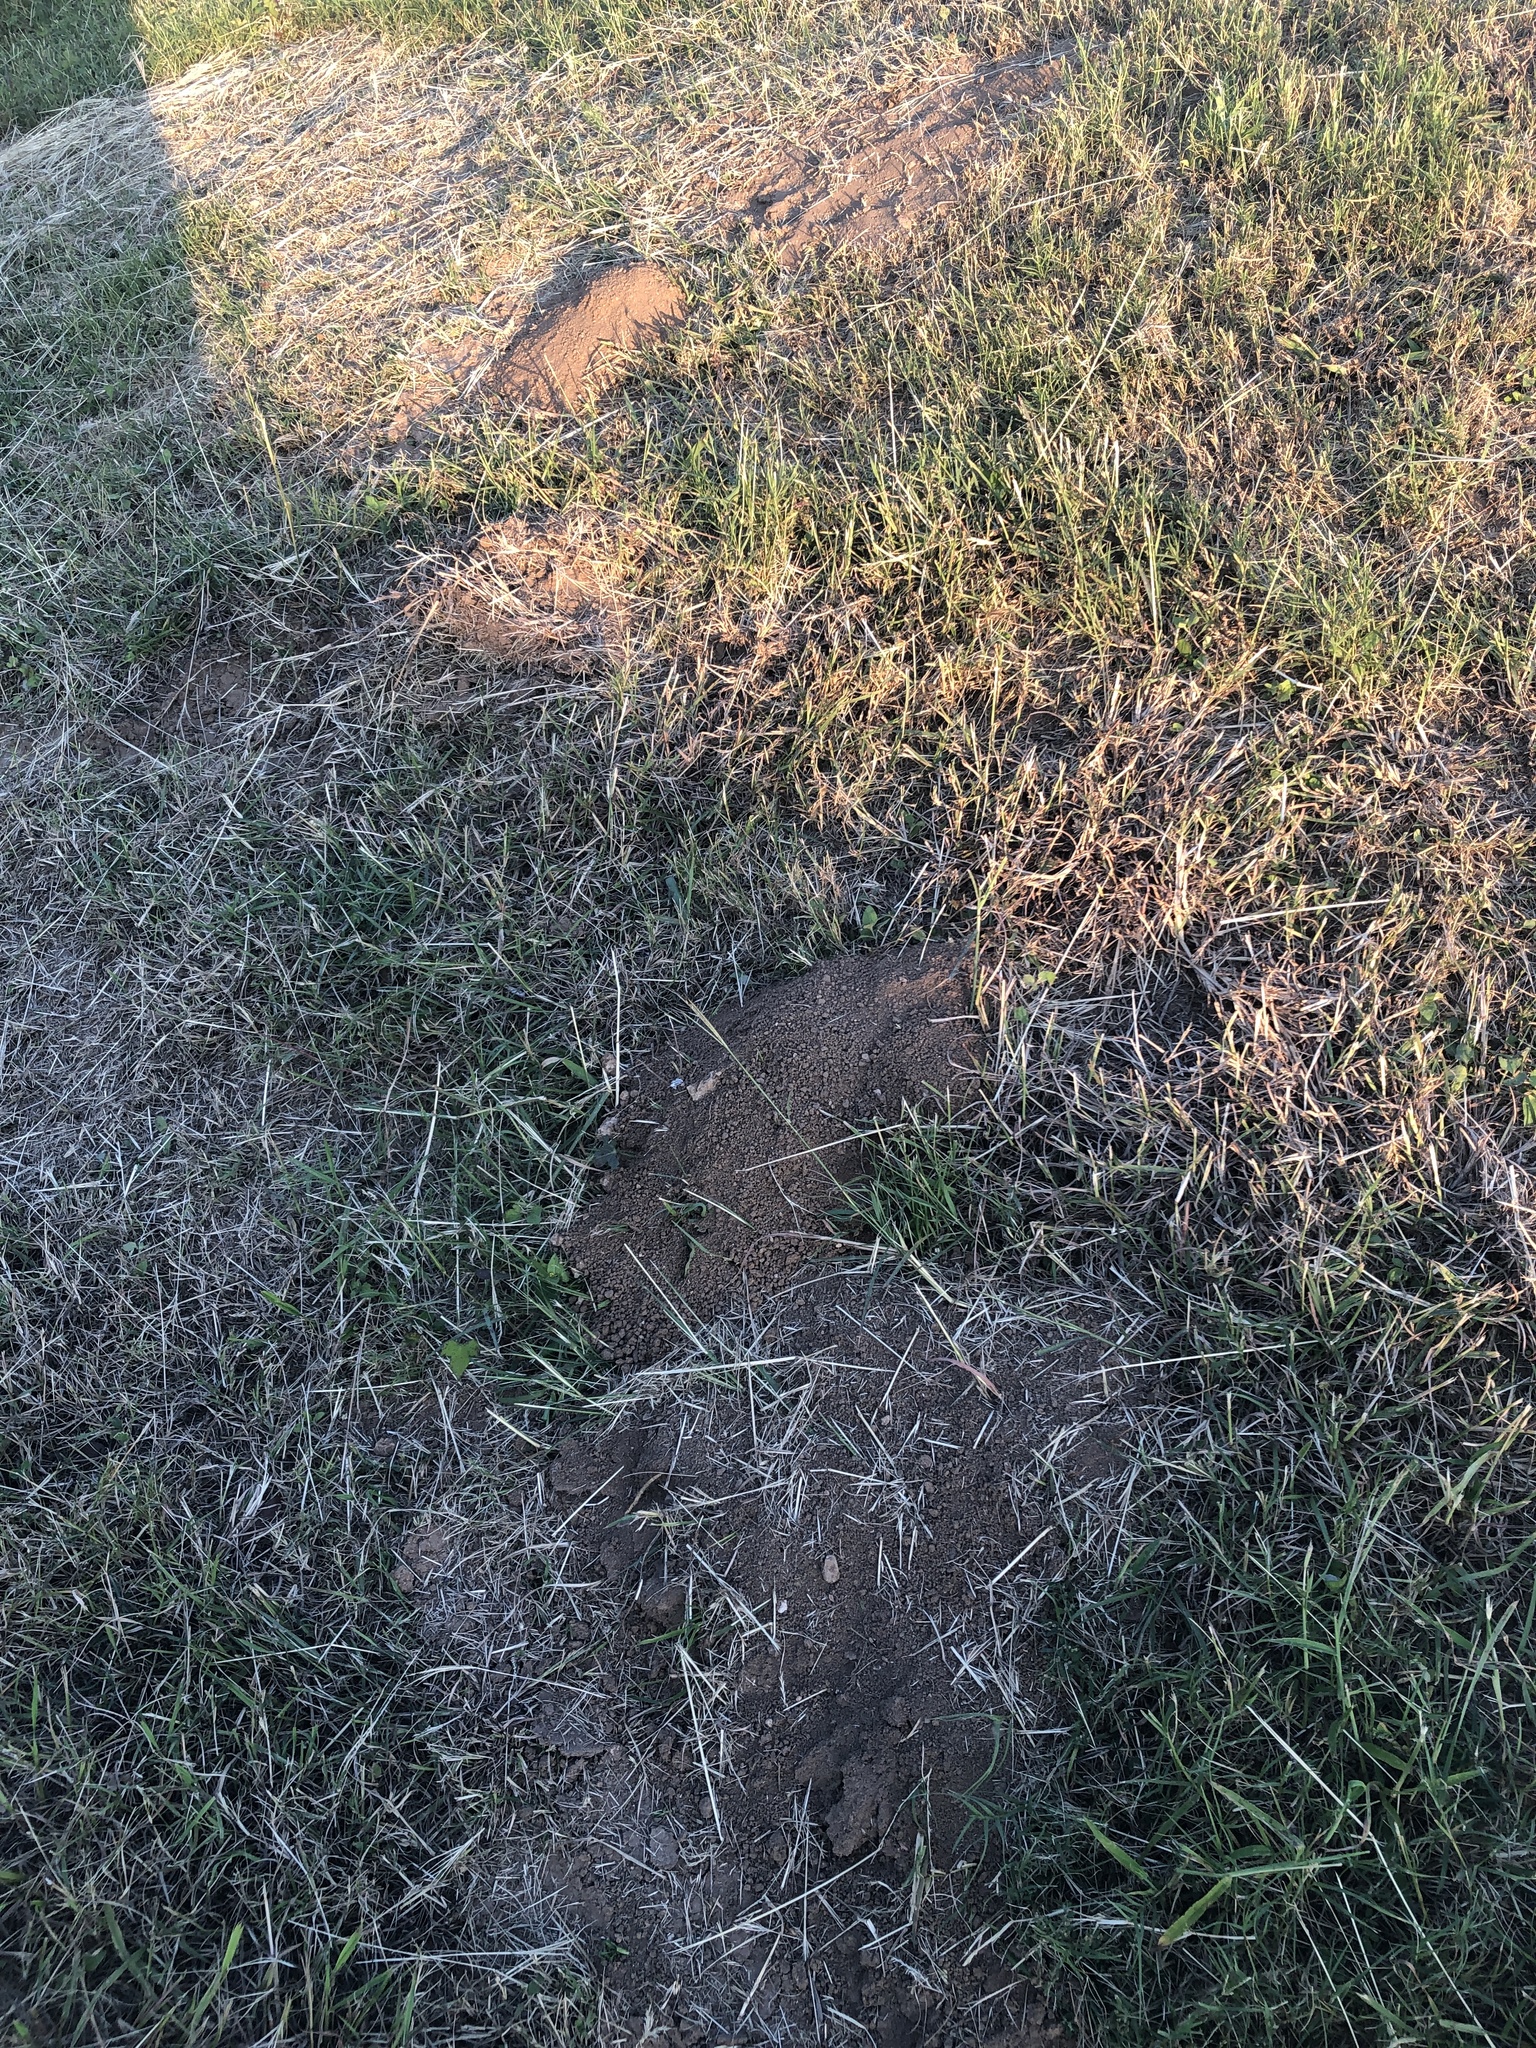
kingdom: Animalia
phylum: Chordata
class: Mammalia
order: Rodentia
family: Geomyidae
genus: Geomys
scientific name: Geomys attwateri
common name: Attwater's pocket gopher
